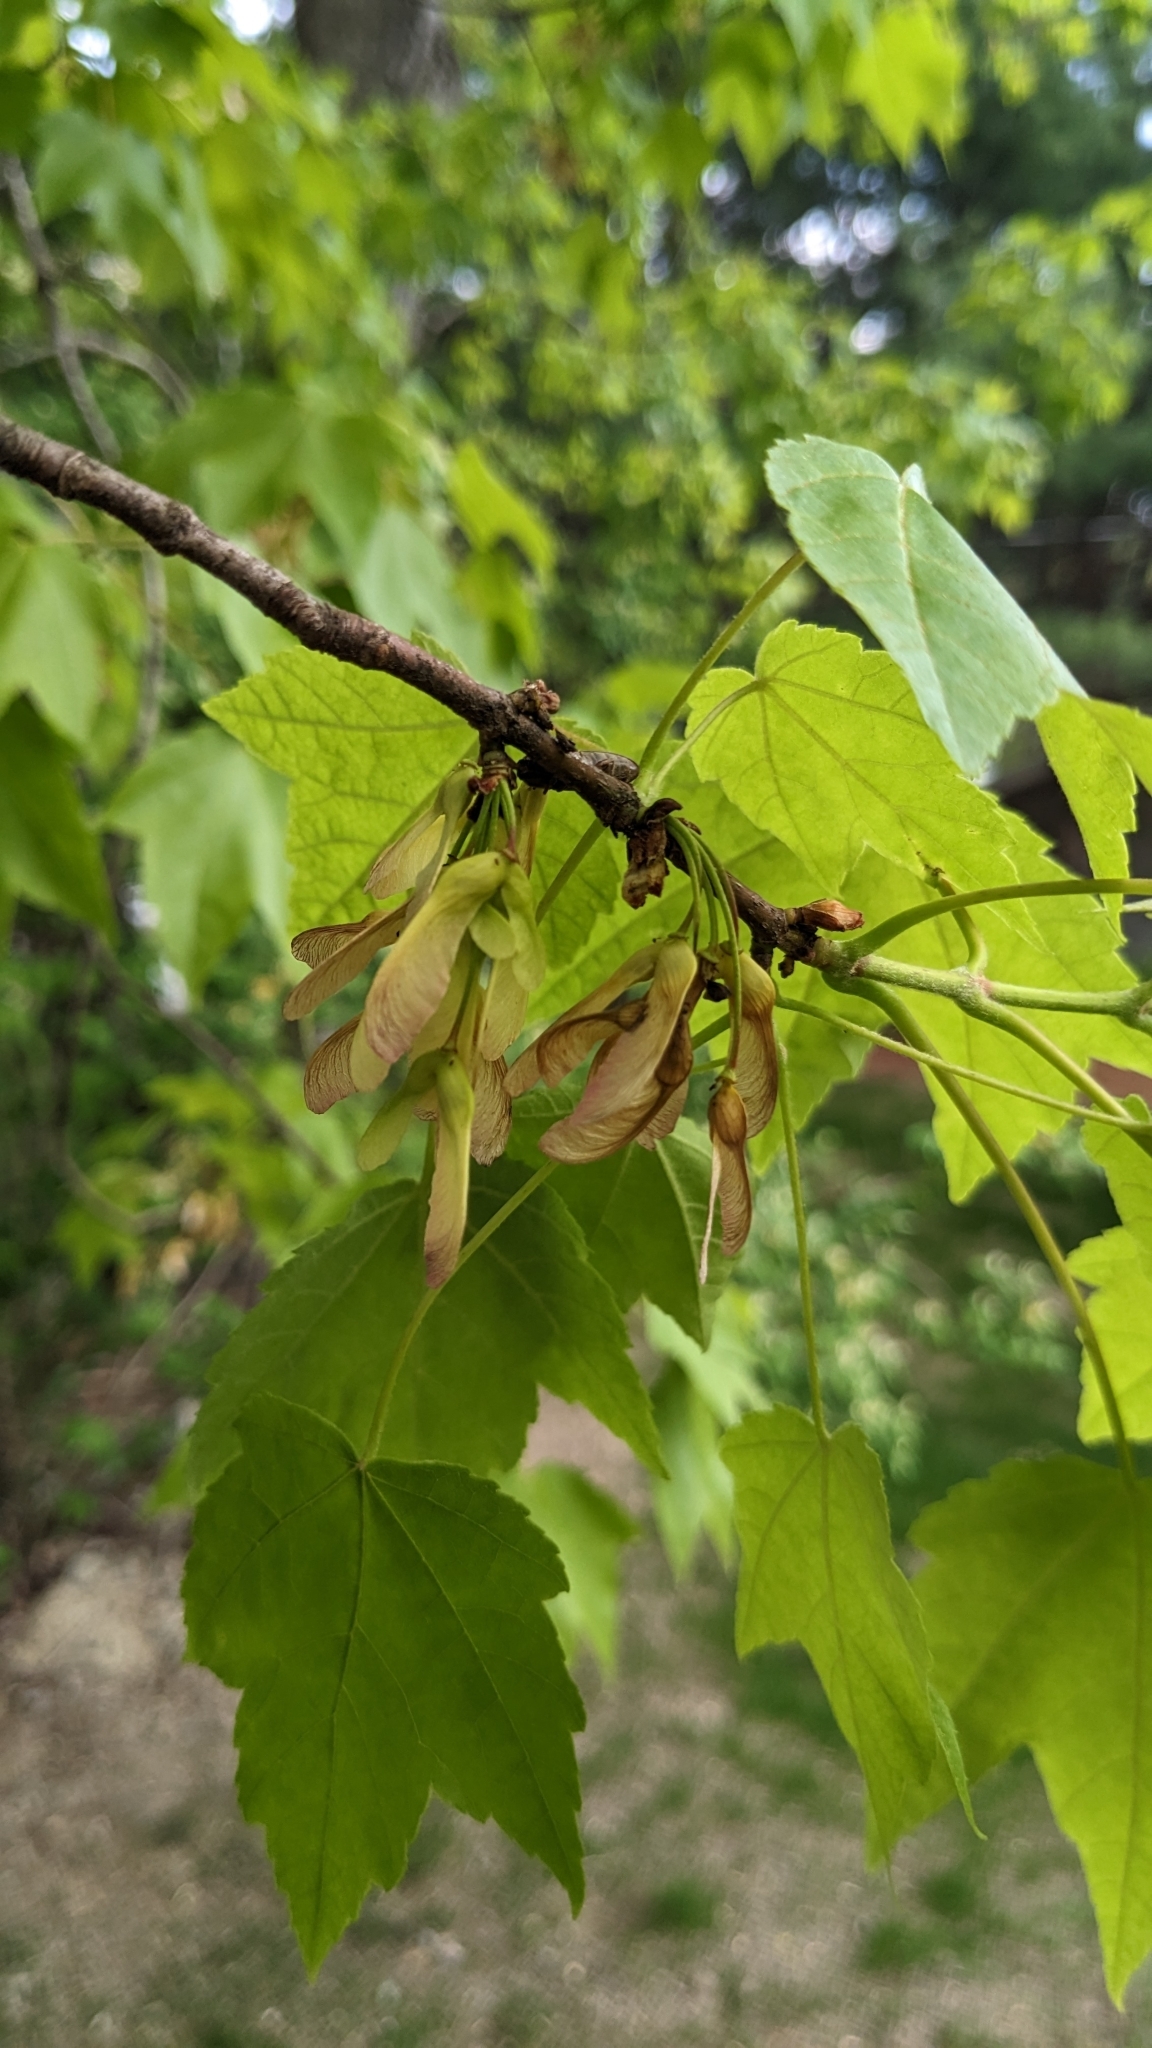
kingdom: Plantae
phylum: Tracheophyta
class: Magnoliopsida
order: Sapindales
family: Sapindaceae
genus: Acer
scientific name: Acer rubrum
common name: Red maple
